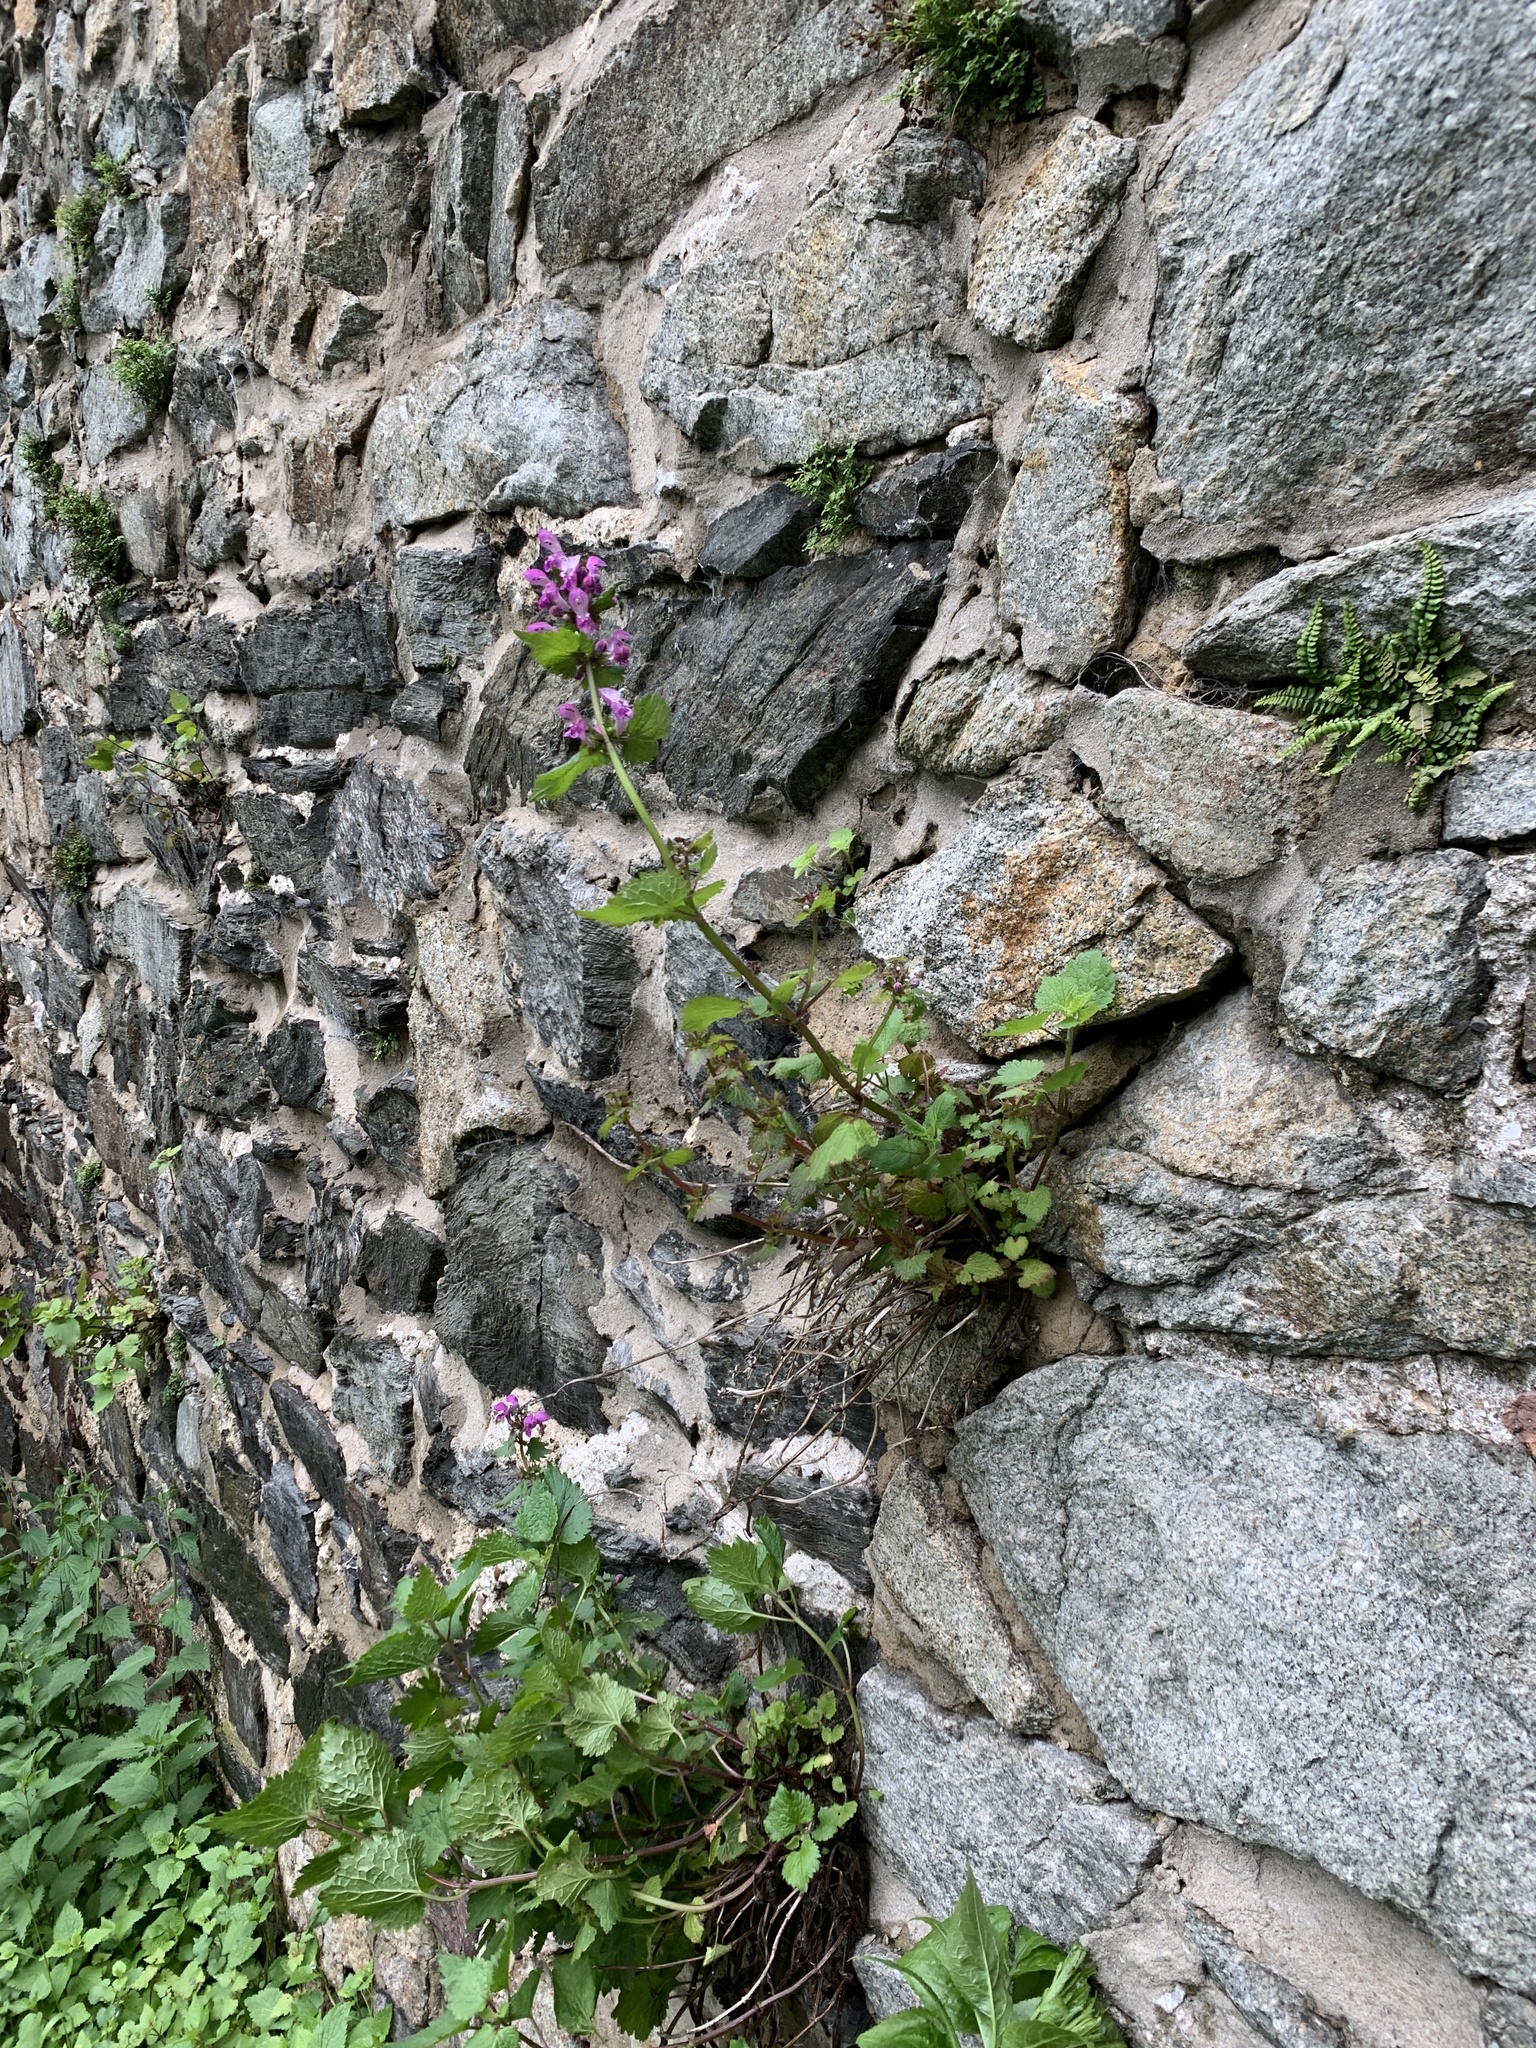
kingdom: Plantae
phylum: Tracheophyta
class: Magnoliopsida
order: Lamiales
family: Lamiaceae
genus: Lamium
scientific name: Lamium maculatum
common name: Spotted dead-nettle
